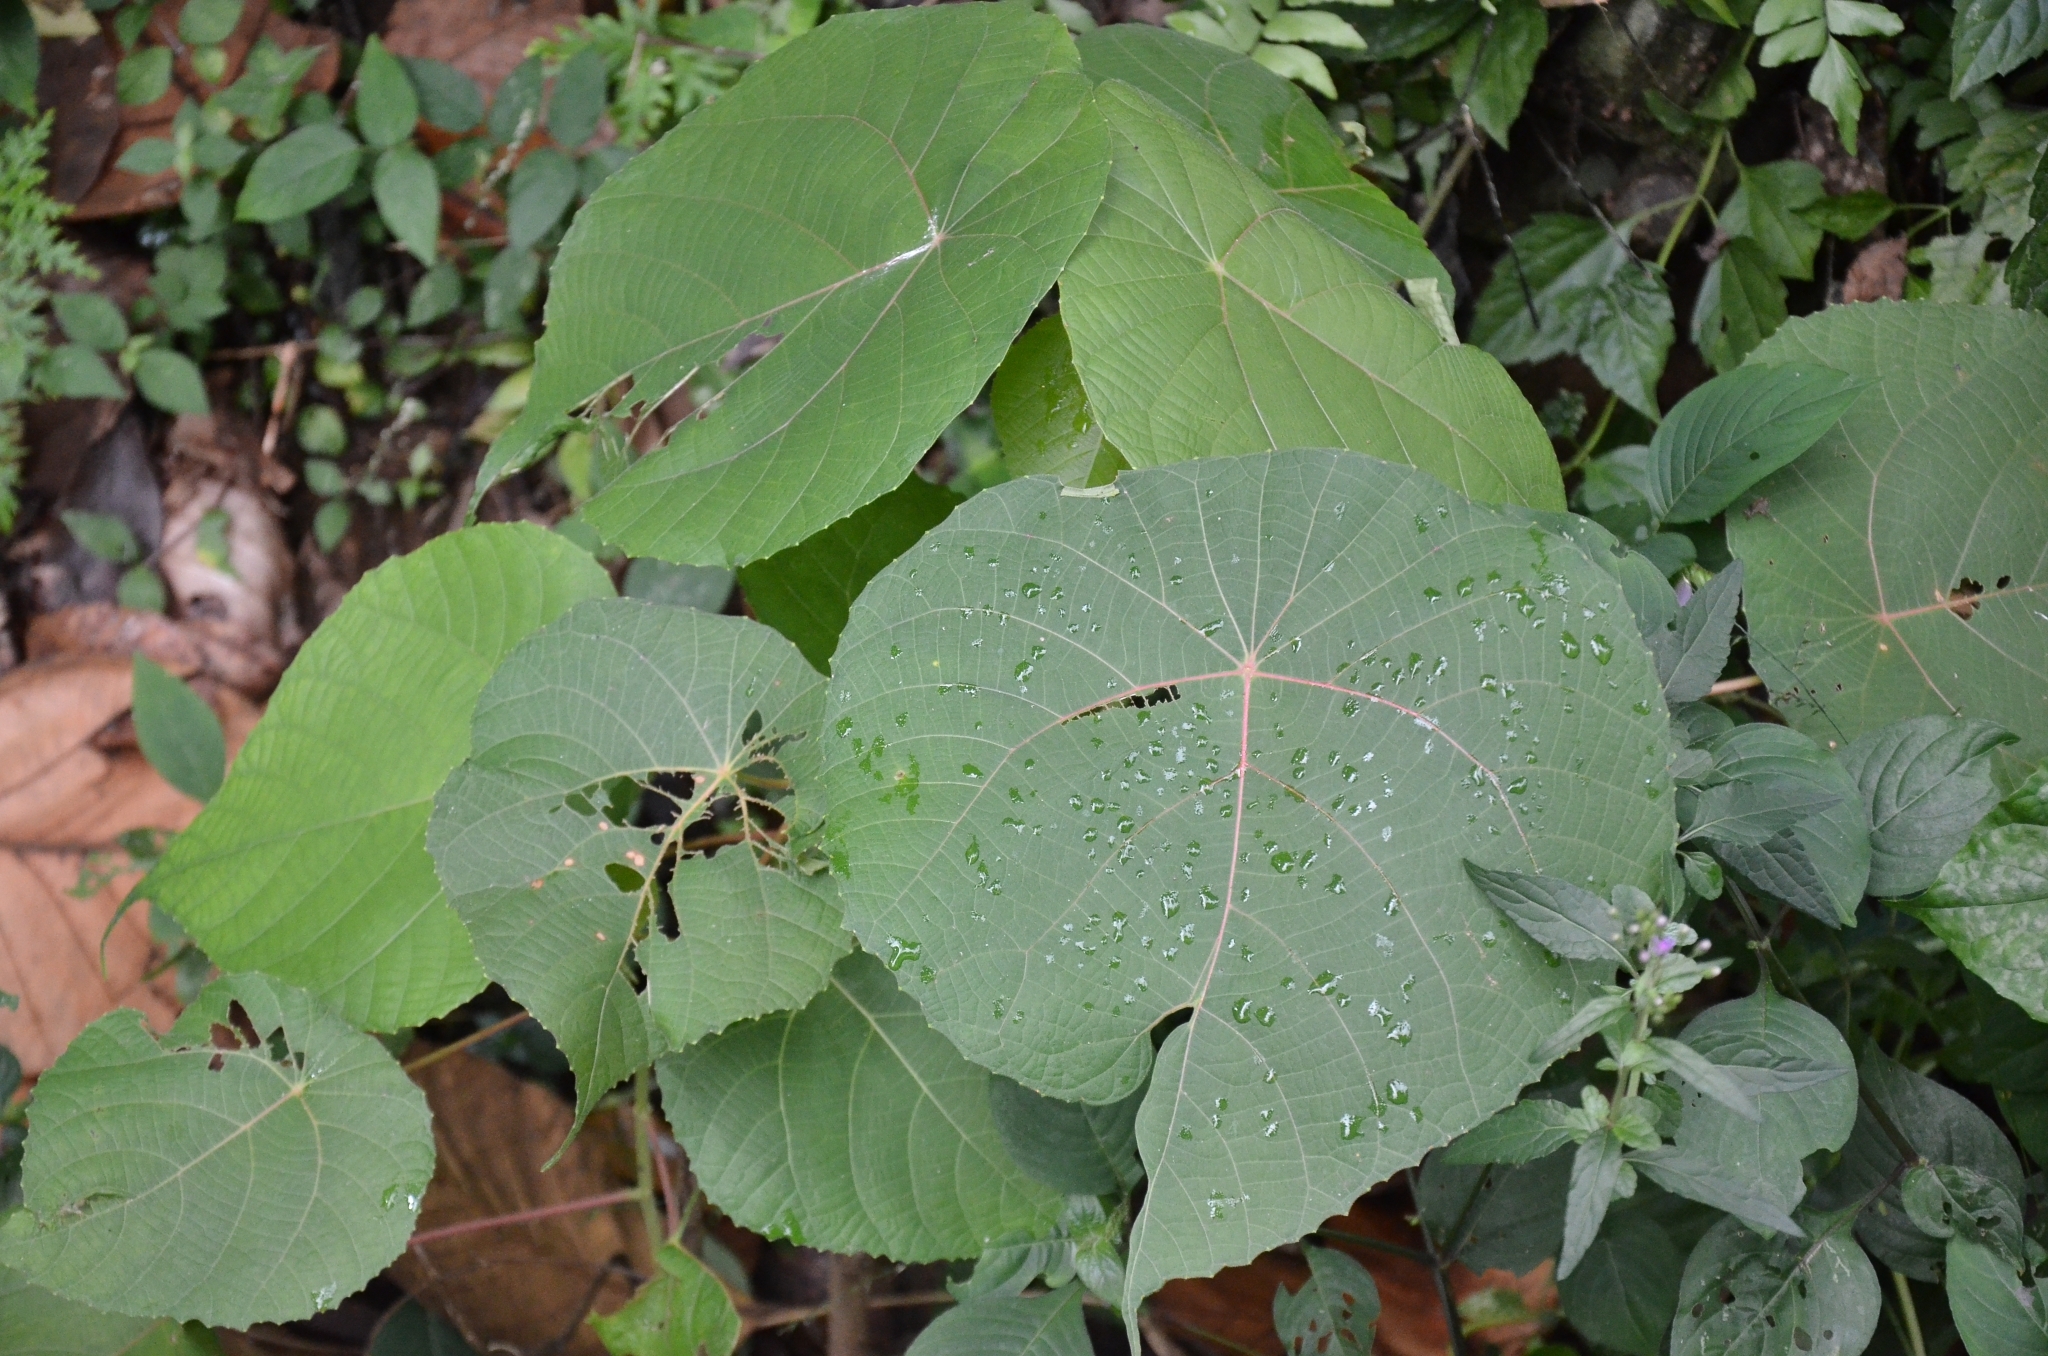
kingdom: Plantae
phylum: Tracheophyta
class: Magnoliopsida
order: Malpighiales
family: Euphorbiaceae
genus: Macaranga
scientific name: Macaranga peltata
